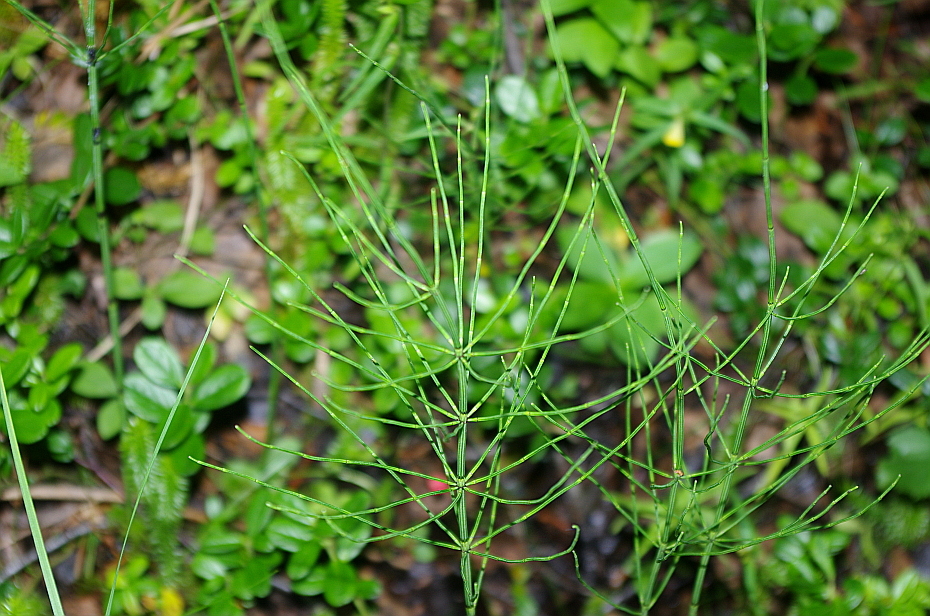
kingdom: Plantae
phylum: Tracheophyta
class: Polypodiopsida
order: Equisetales
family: Equisetaceae
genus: Equisetum
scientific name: Equisetum palustre
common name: Marsh horsetail
